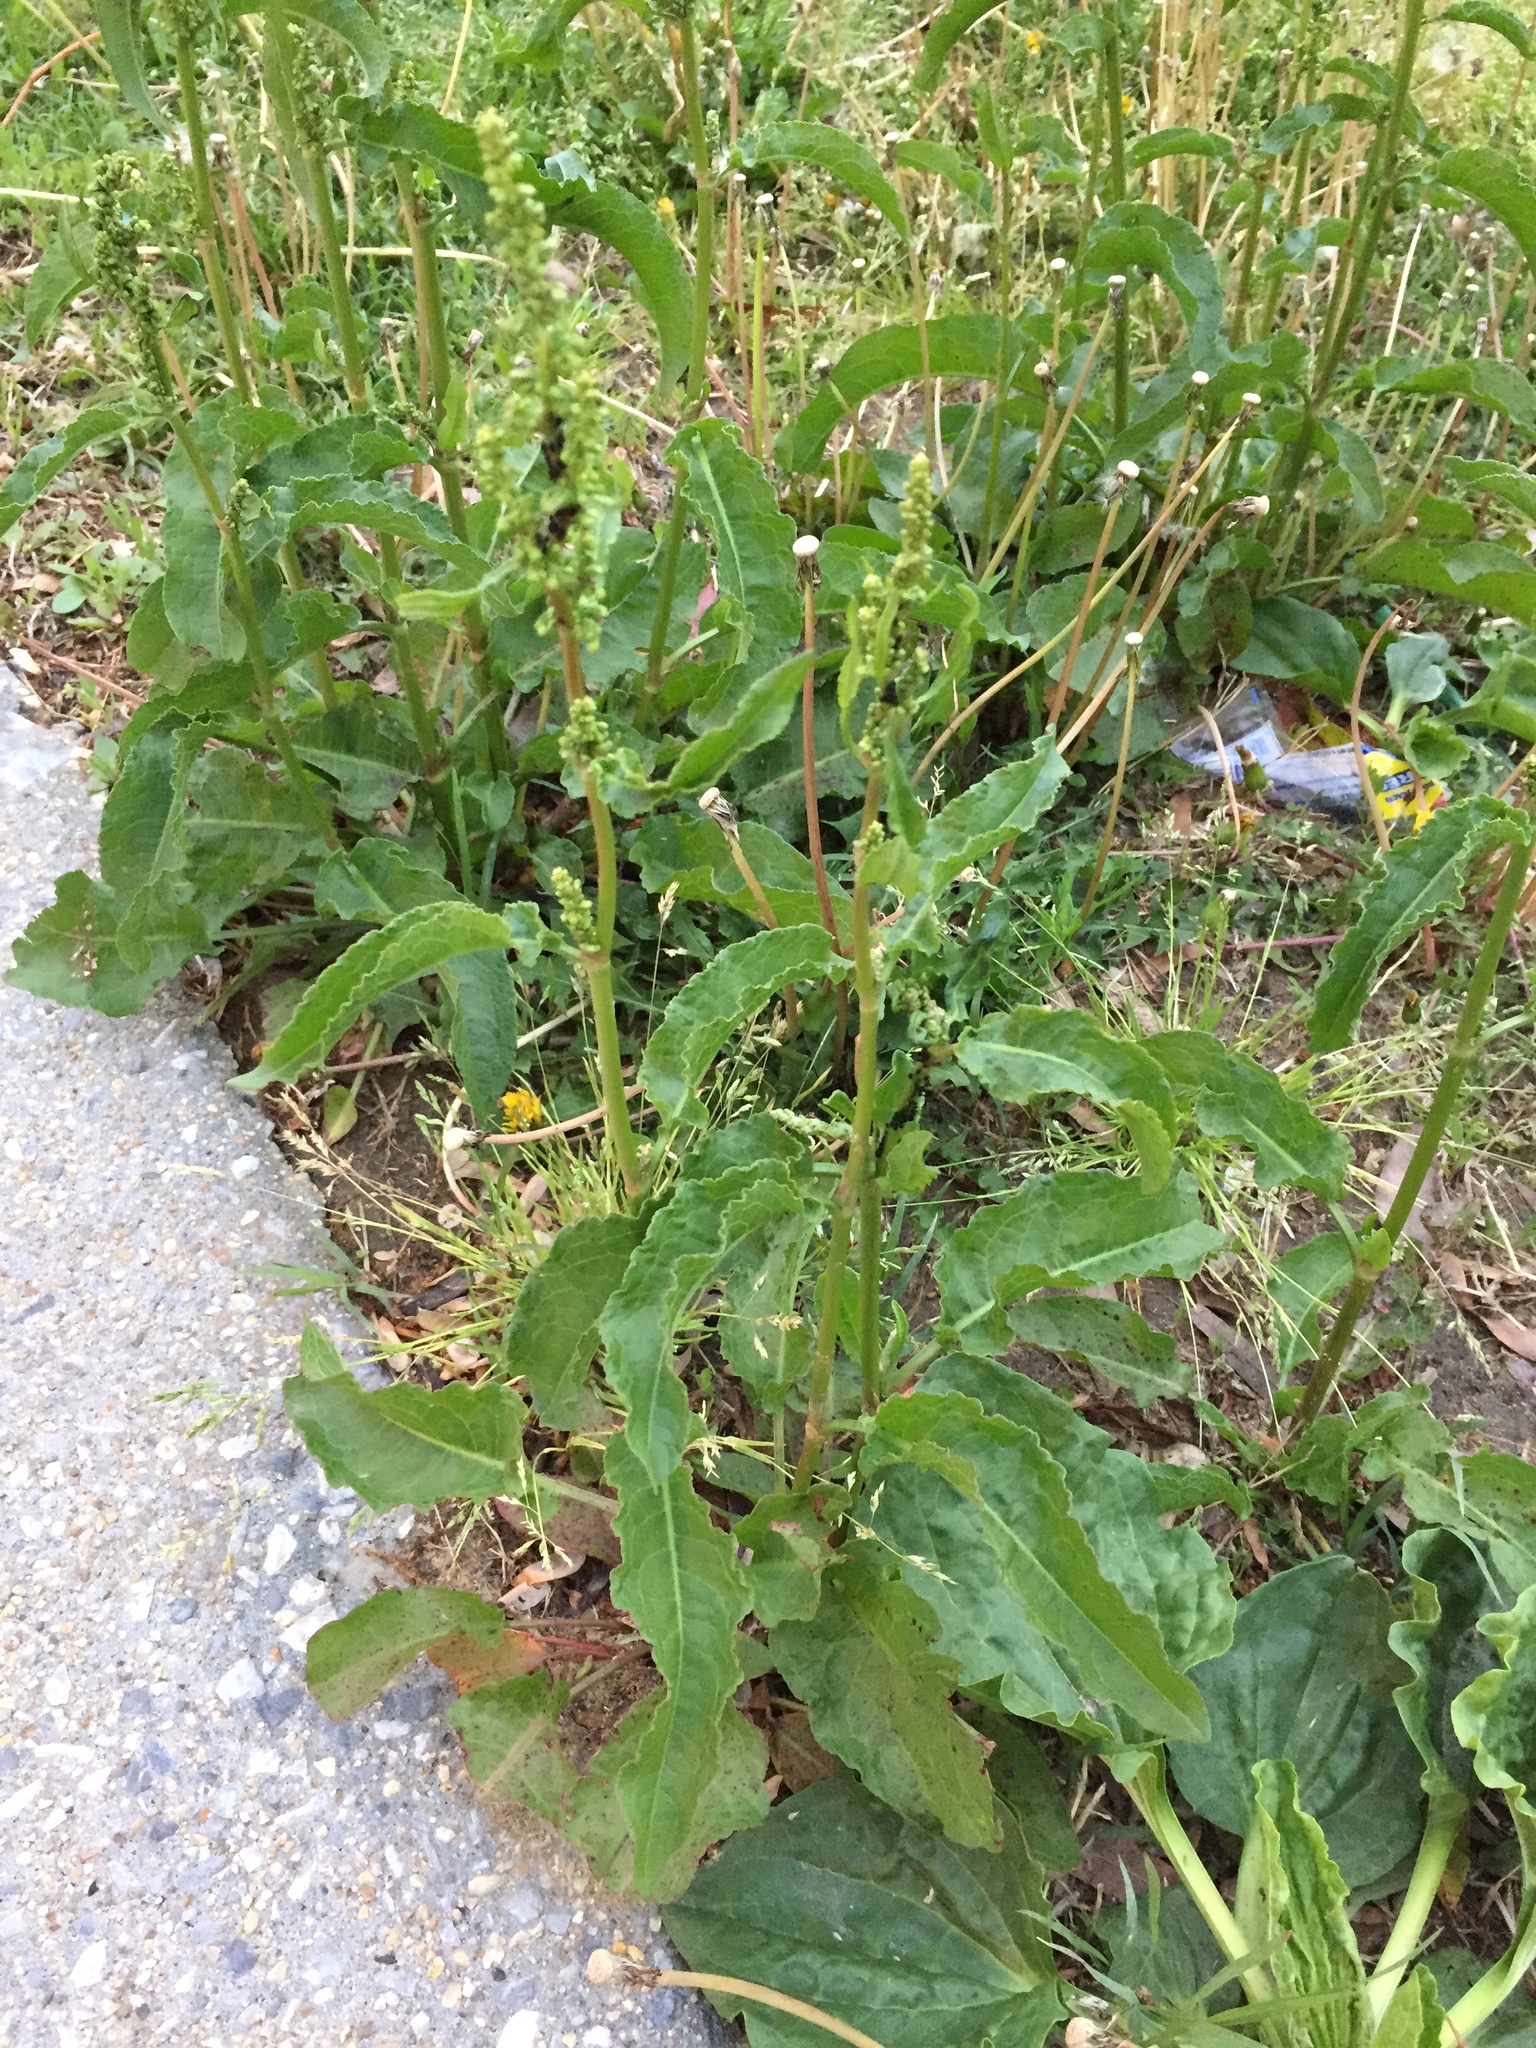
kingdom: Plantae
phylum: Tracheophyta
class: Magnoliopsida
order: Caryophyllales
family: Polygonaceae
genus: Rumex
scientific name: Rumex crispus
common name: Curled dock
